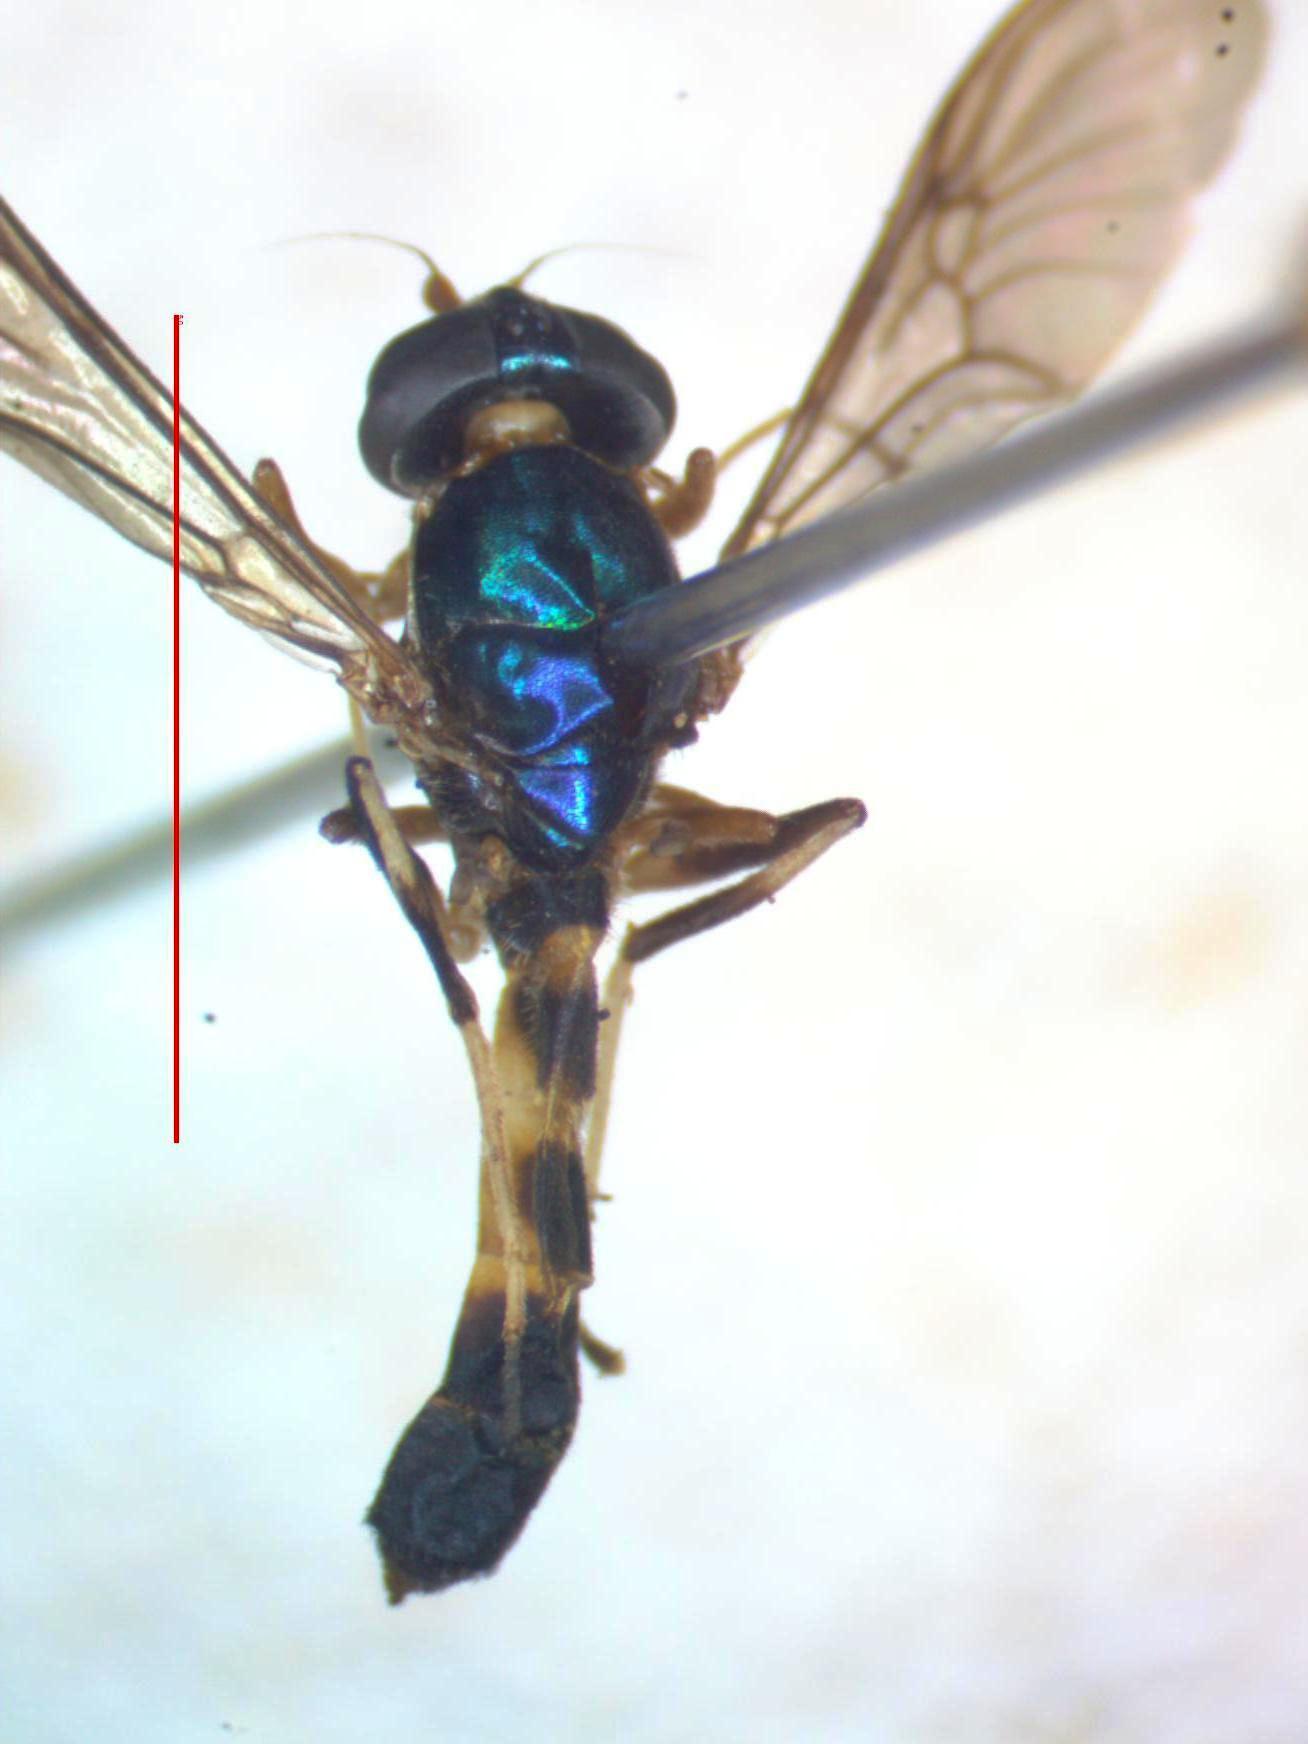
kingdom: Animalia
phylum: Arthropoda
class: Insecta
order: Diptera
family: Stratiomyidae
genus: Merosargus
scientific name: Merosargus cingulatus
